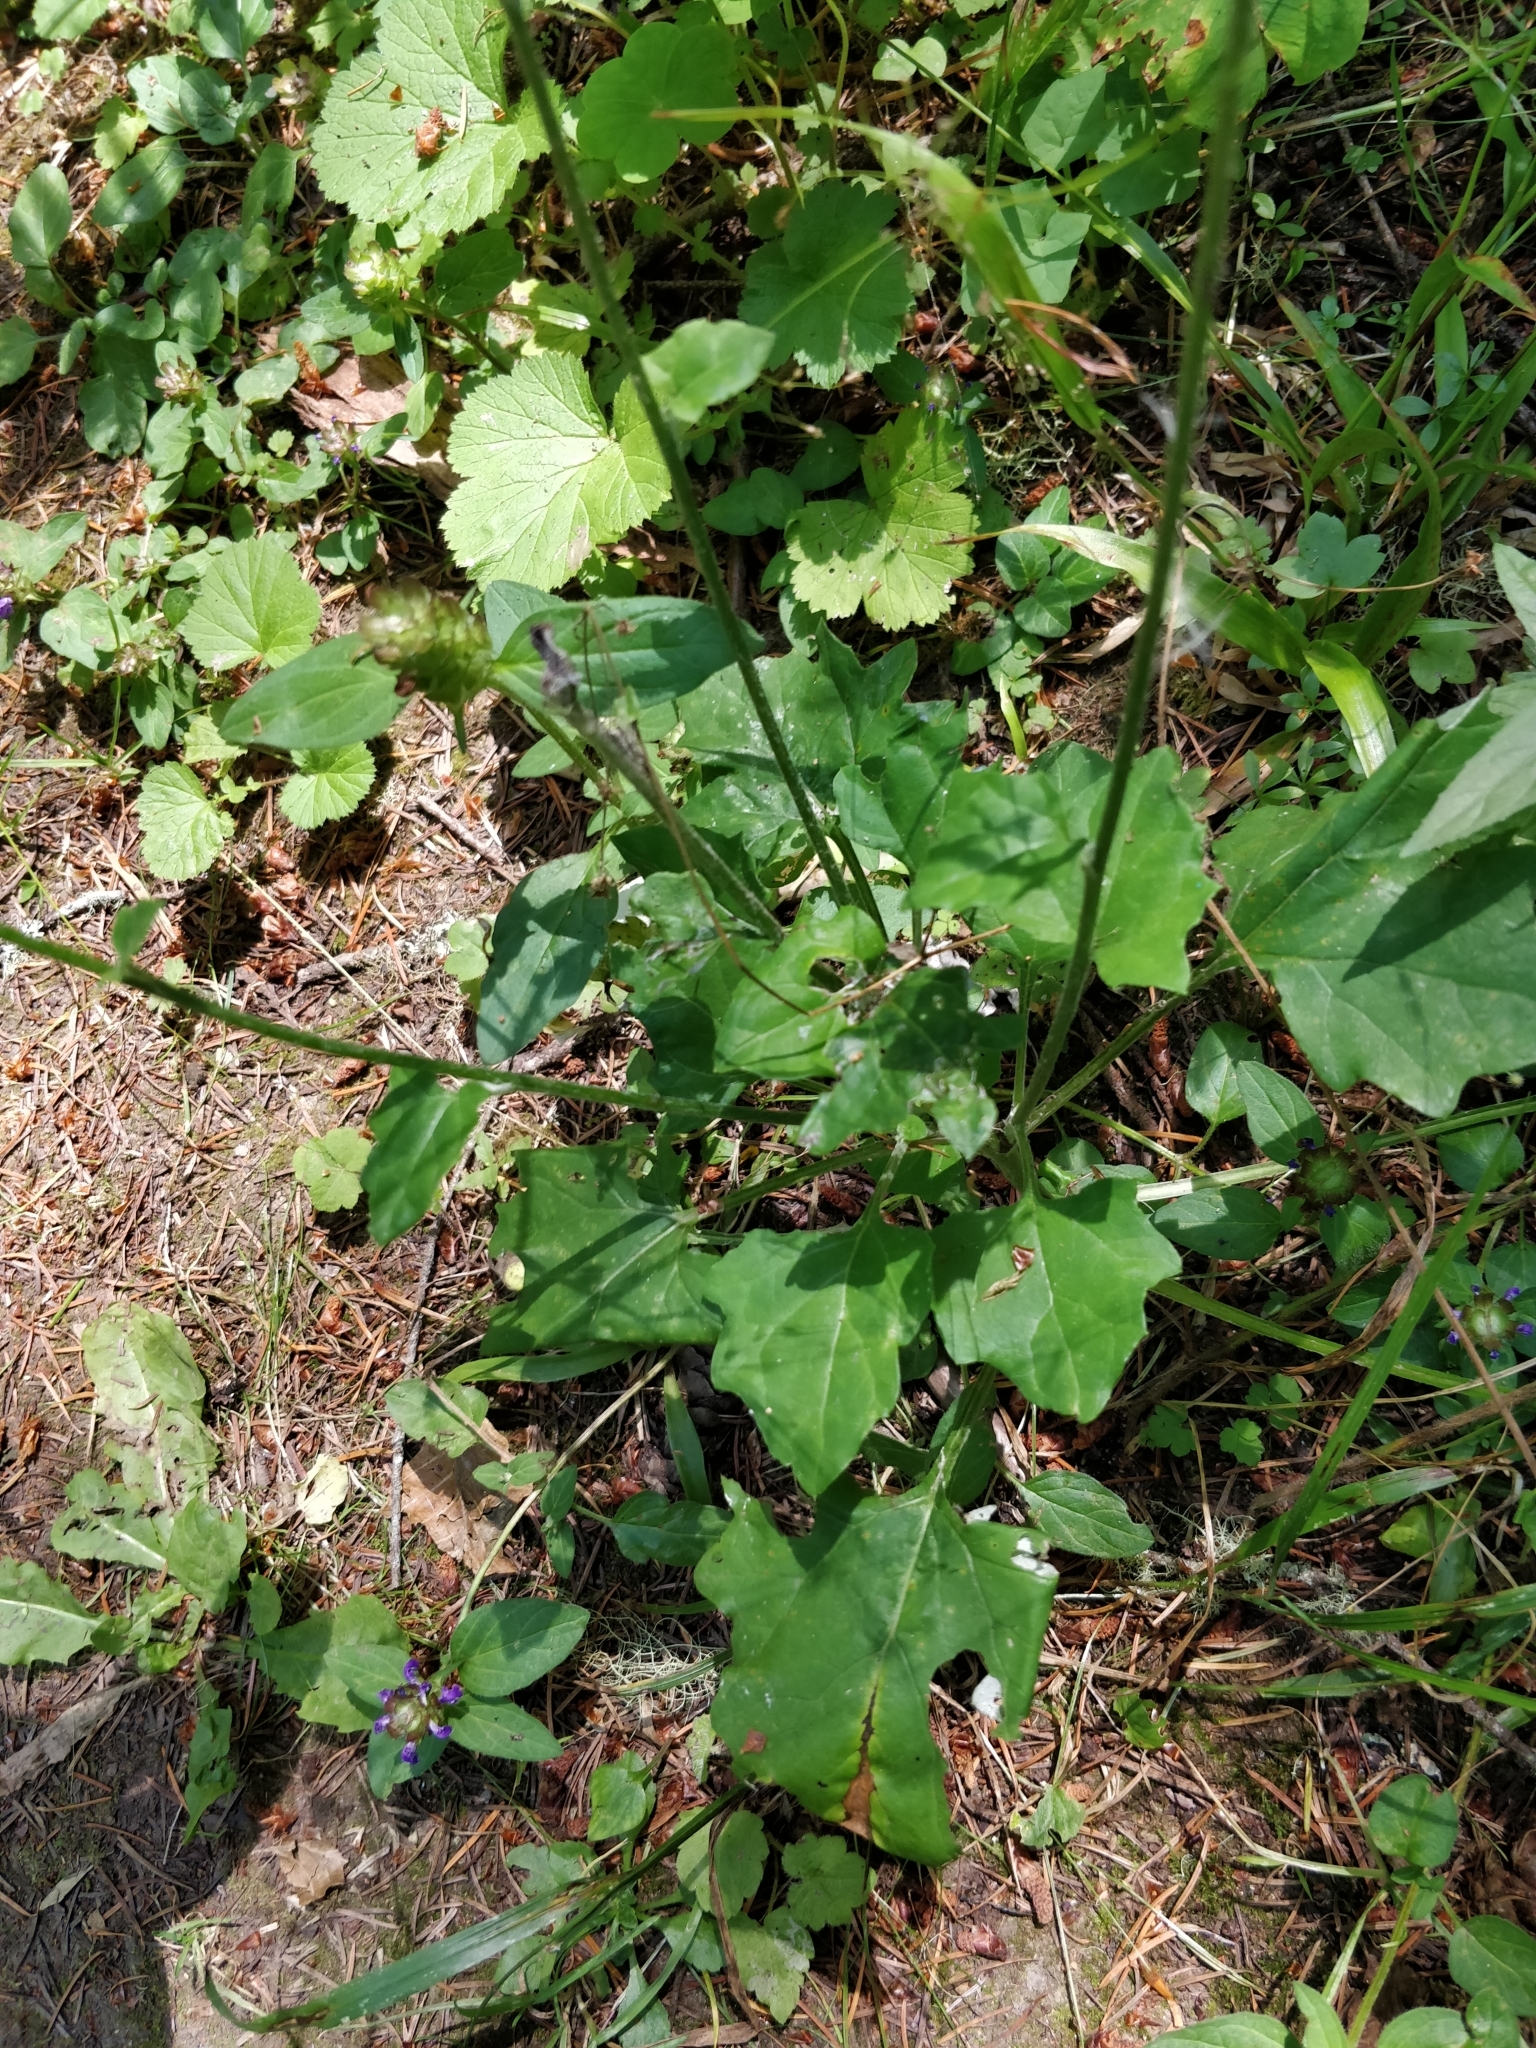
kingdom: Plantae
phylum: Tracheophyta
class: Magnoliopsida
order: Asterales
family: Asteraceae
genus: Adenocaulon
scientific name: Adenocaulon bicolor
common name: Trailplant
